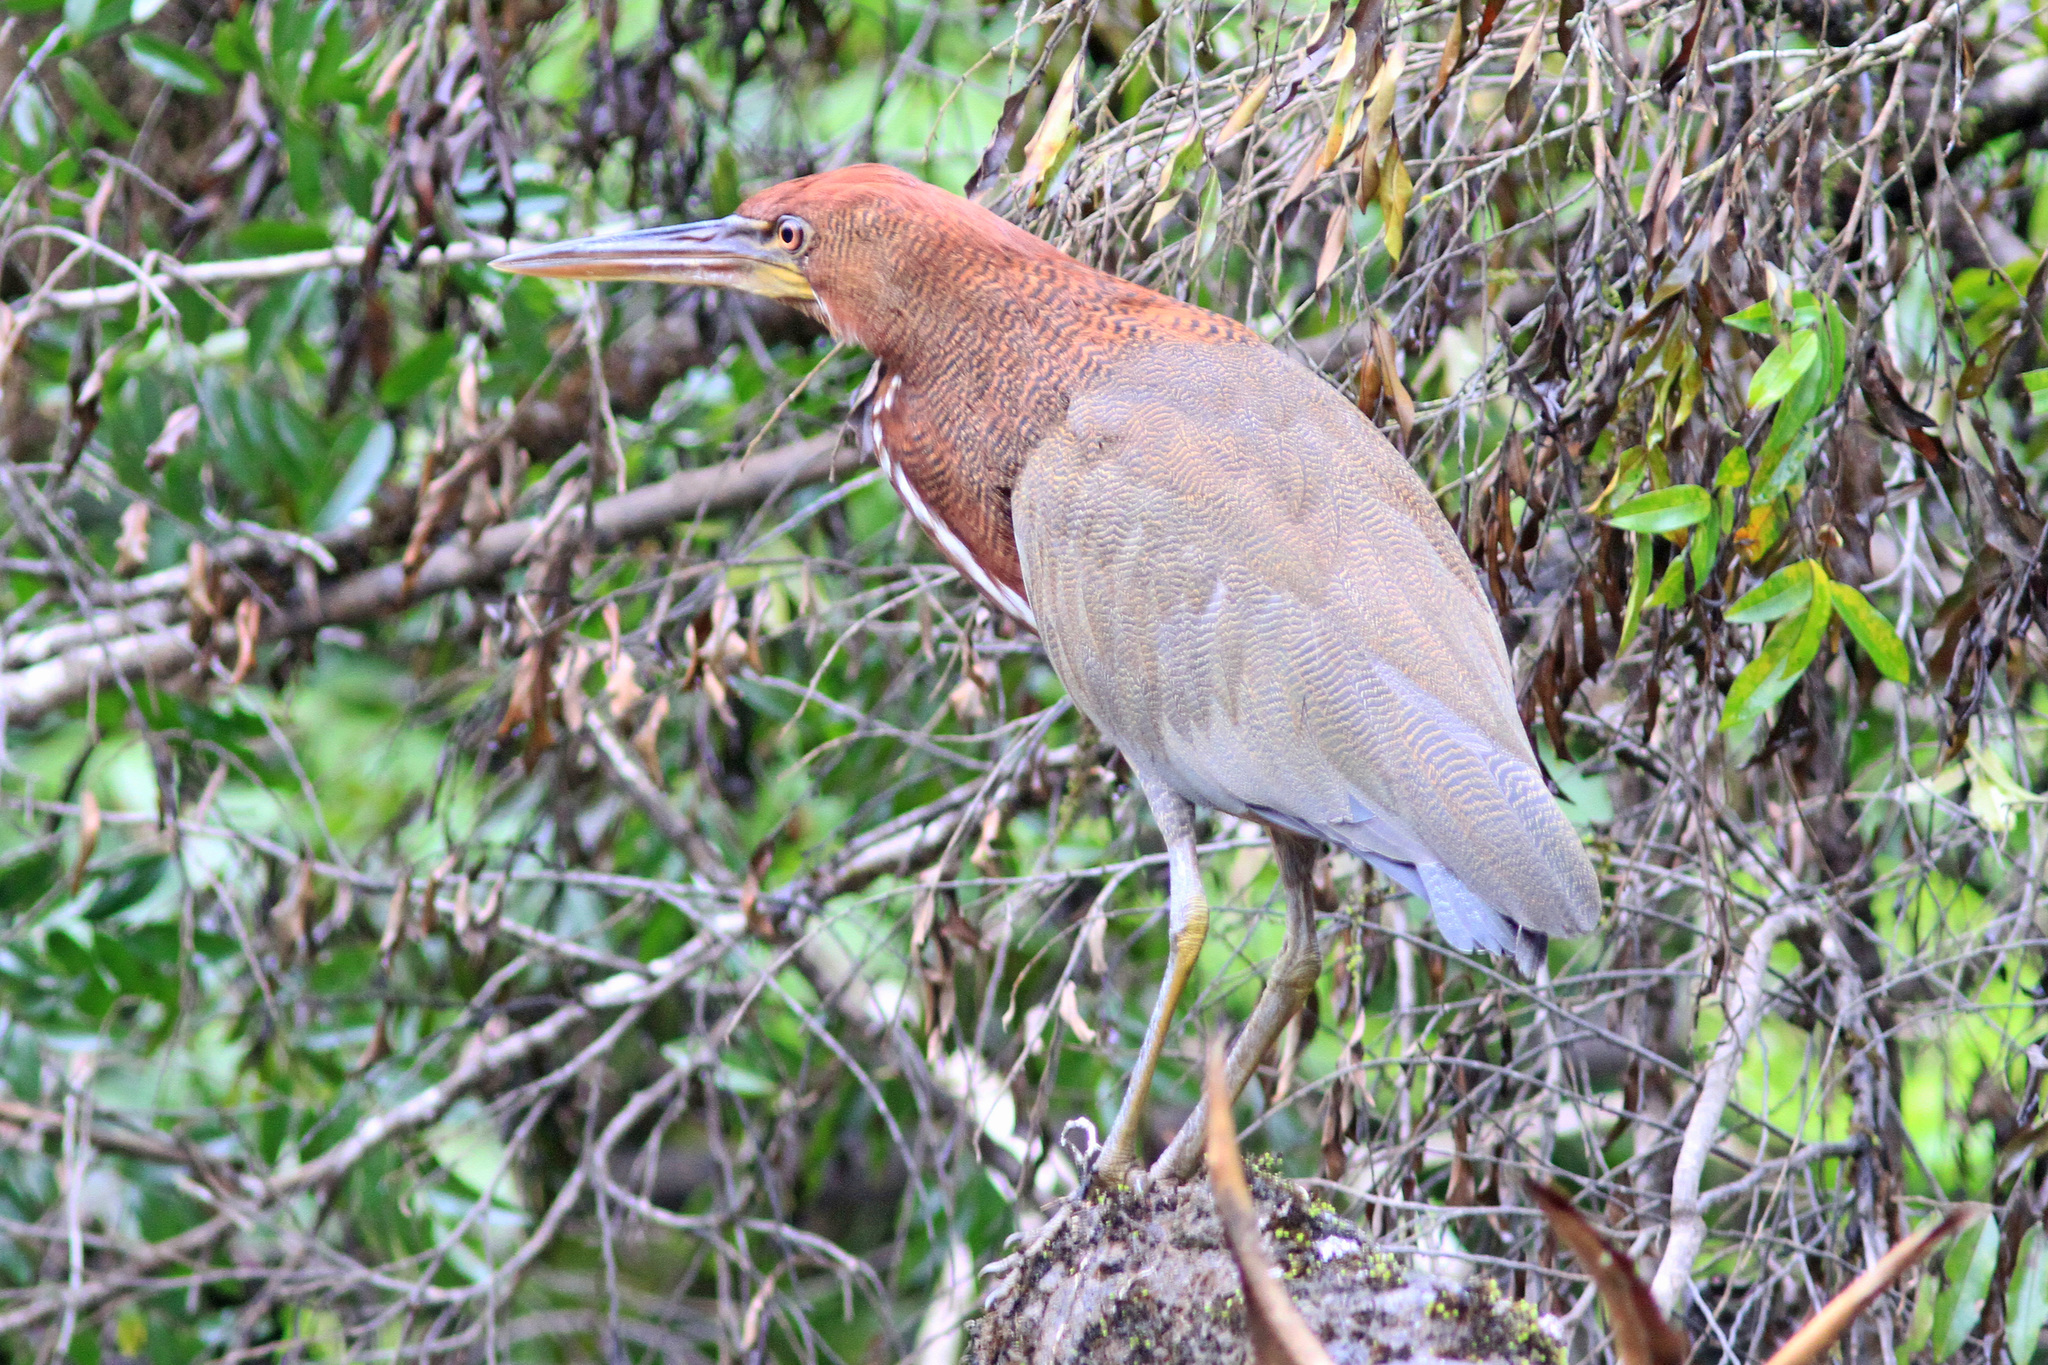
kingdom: Animalia
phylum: Chordata
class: Aves
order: Pelecaniformes
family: Ardeidae
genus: Tigrisoma
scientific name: Tigrisoma lineatum
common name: Rufescent tiger-heron
